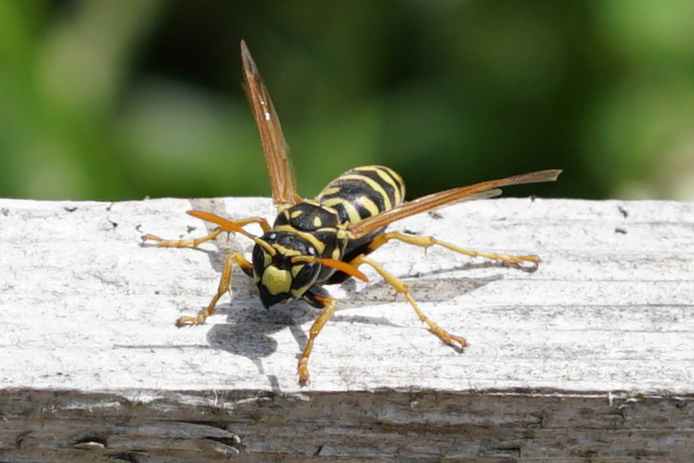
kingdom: Animalia
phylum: Arthropoda
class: Insecta
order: Hymenoptera
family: Eumenidae
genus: Polistes
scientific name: Polistes dominula
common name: Paper wasp
